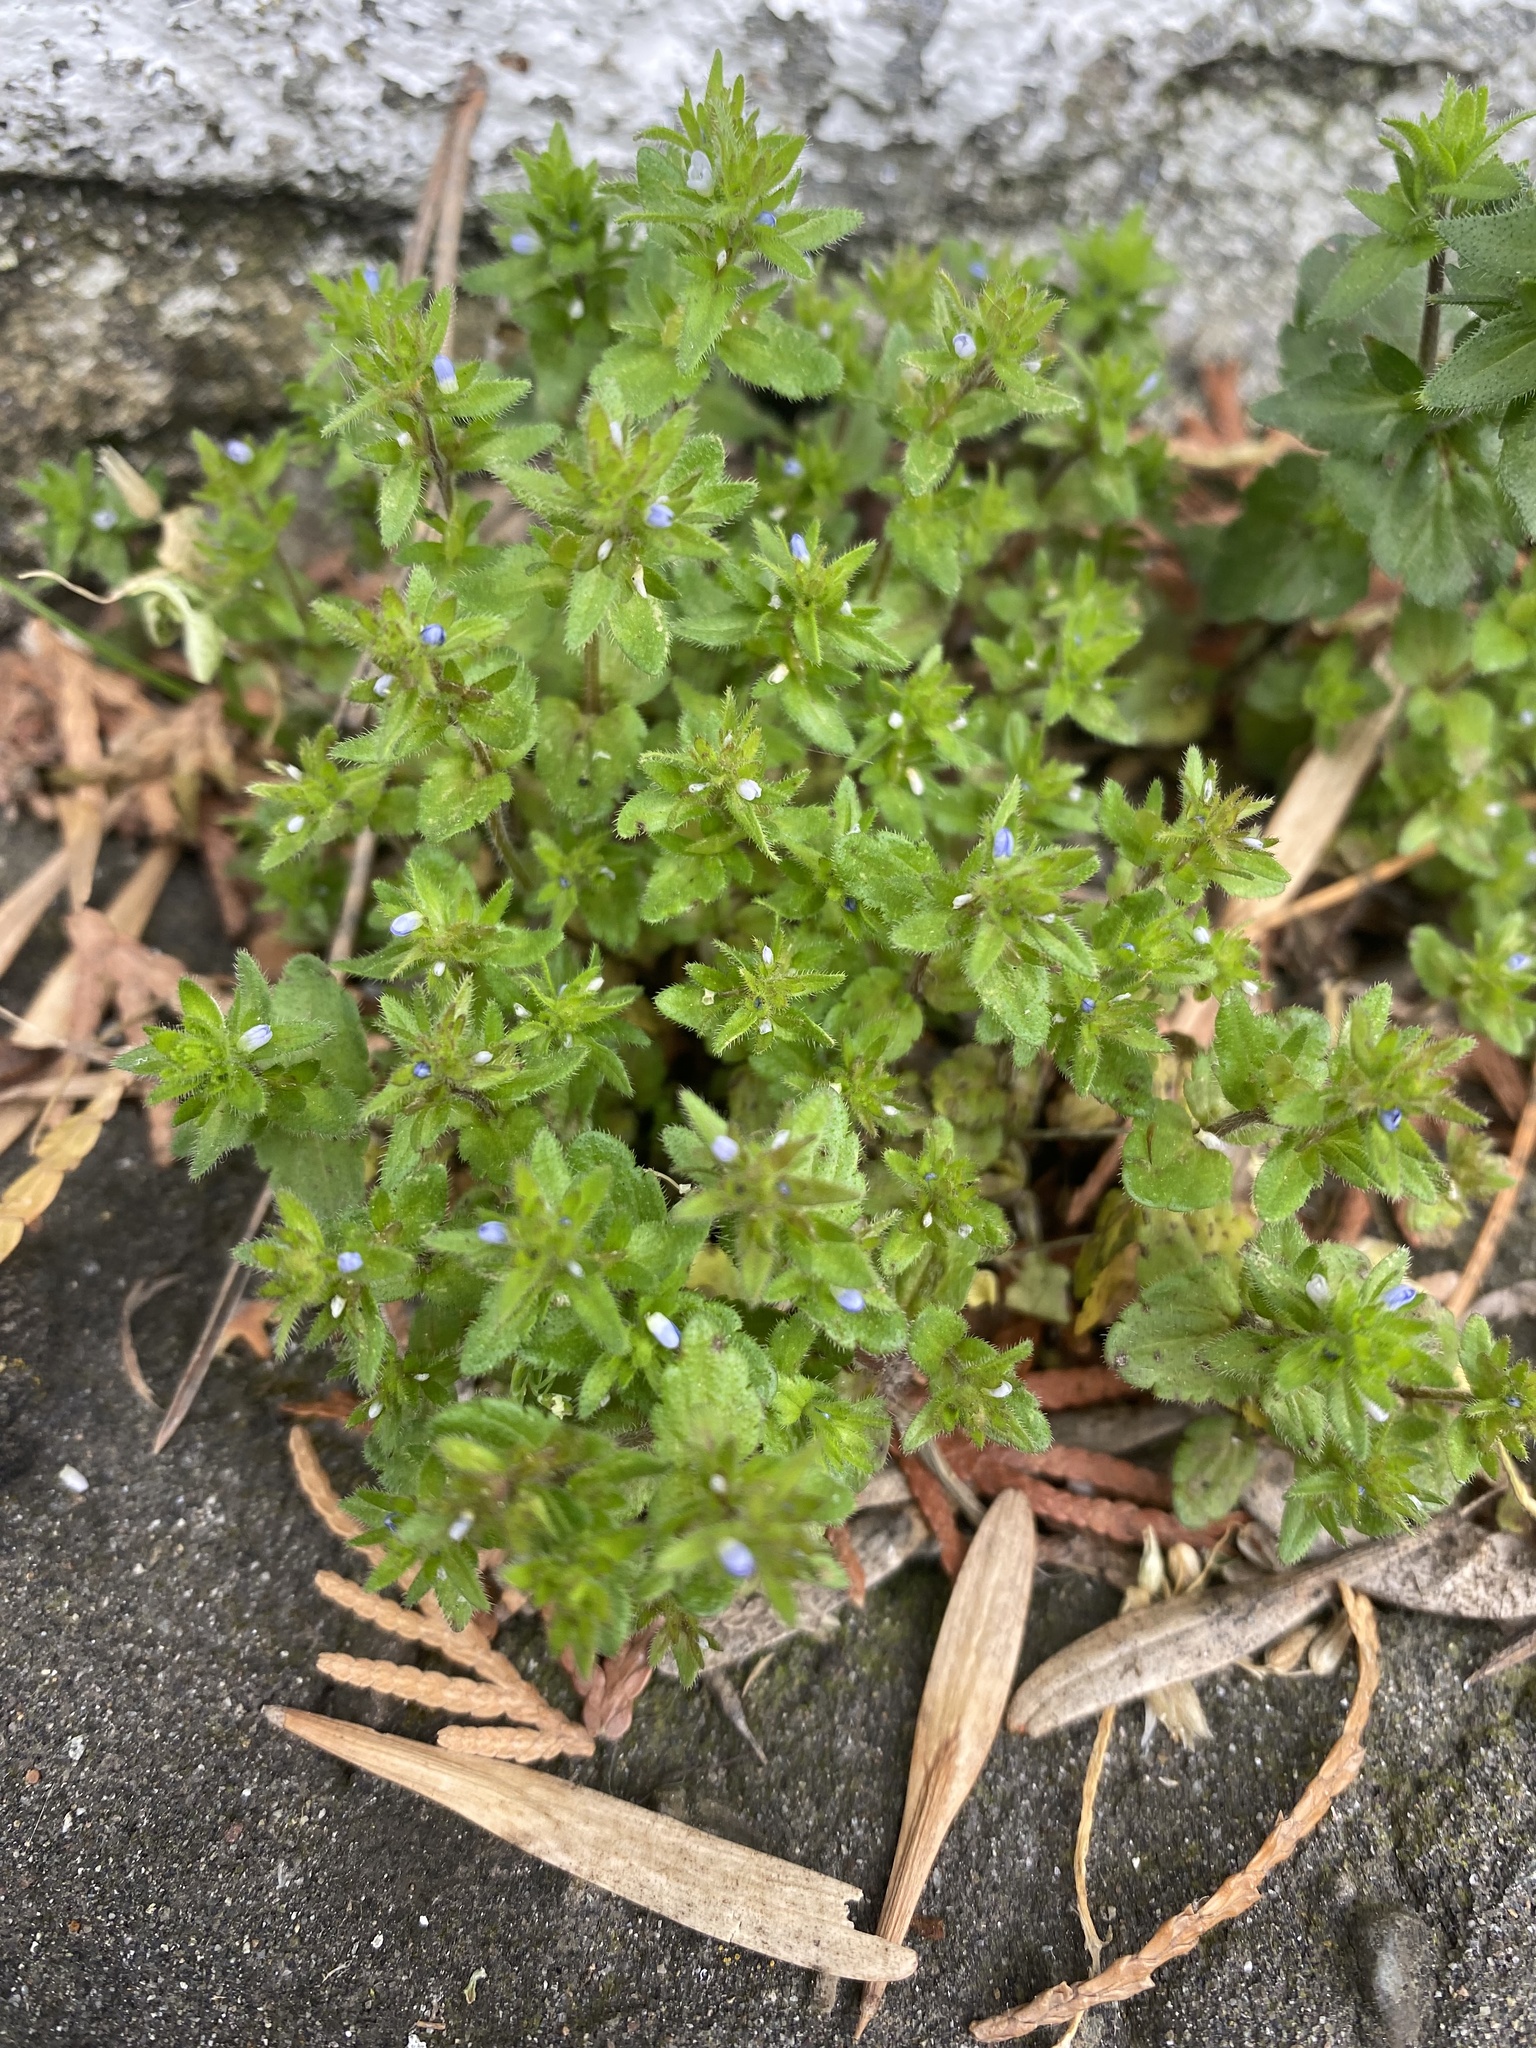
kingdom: Plantae
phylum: Tracheophyta
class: Magnoliopsida
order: Lamiales
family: Plantaginaceae
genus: Veronica
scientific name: Veronica arvensis
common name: Corn speedwell
